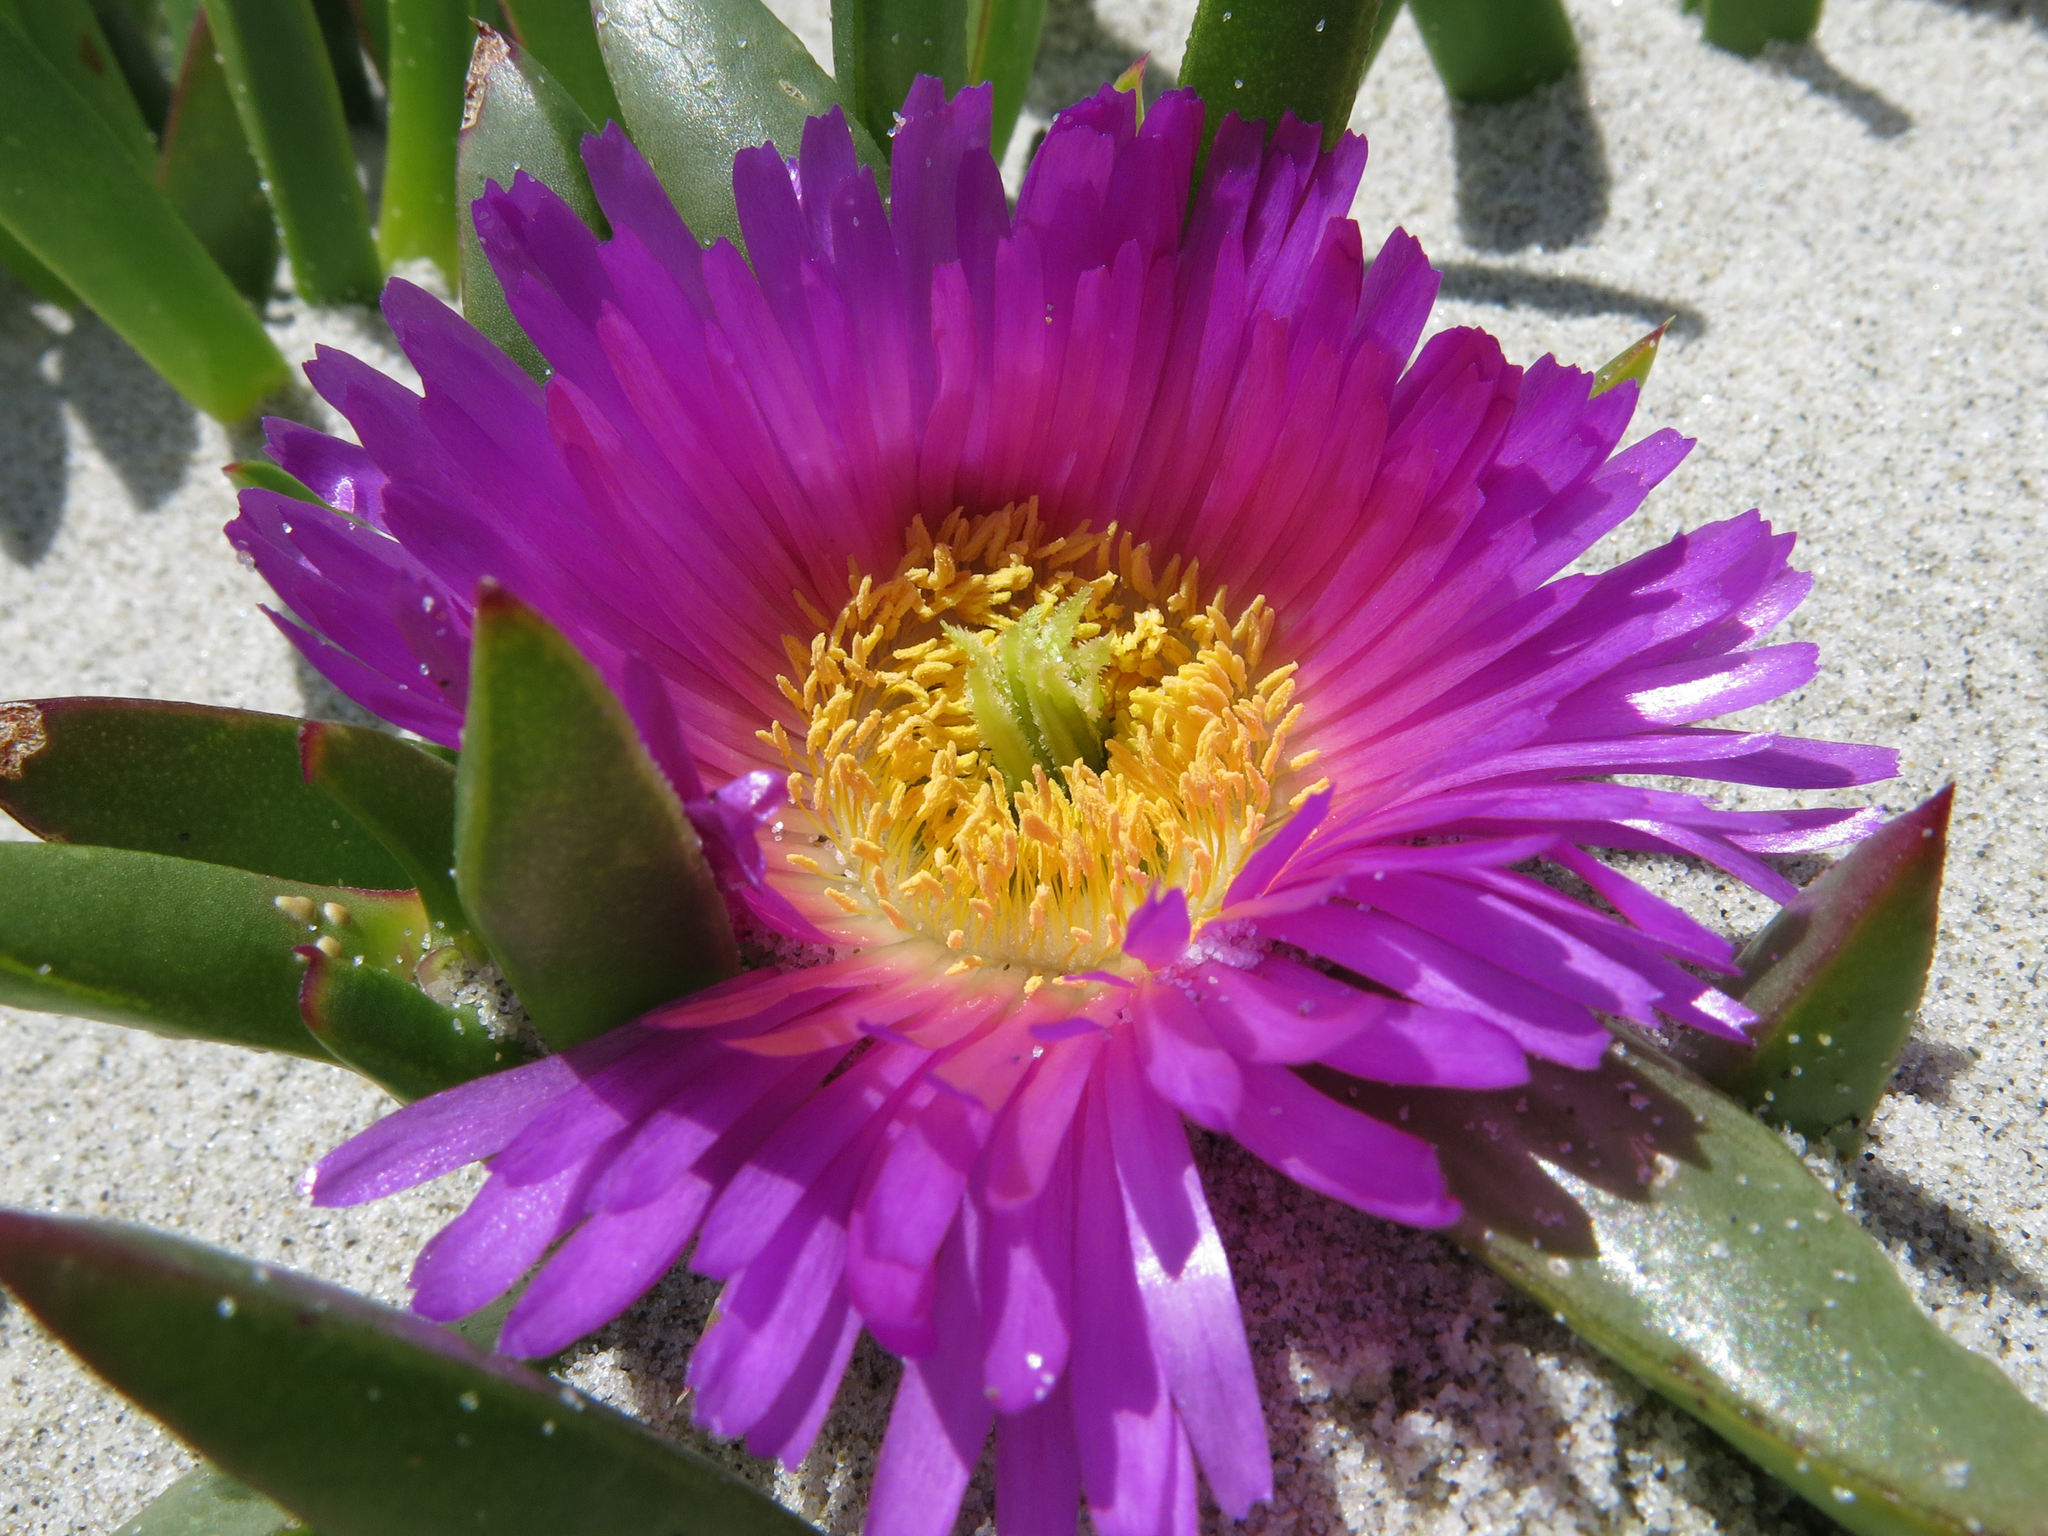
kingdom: Plantae
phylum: Tracheophyta
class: Magnoliopsida
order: Caryophyllales
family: Aizoaceae
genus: Carpobrotus
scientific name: Carpobrotus chilensis
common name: Sea fig
